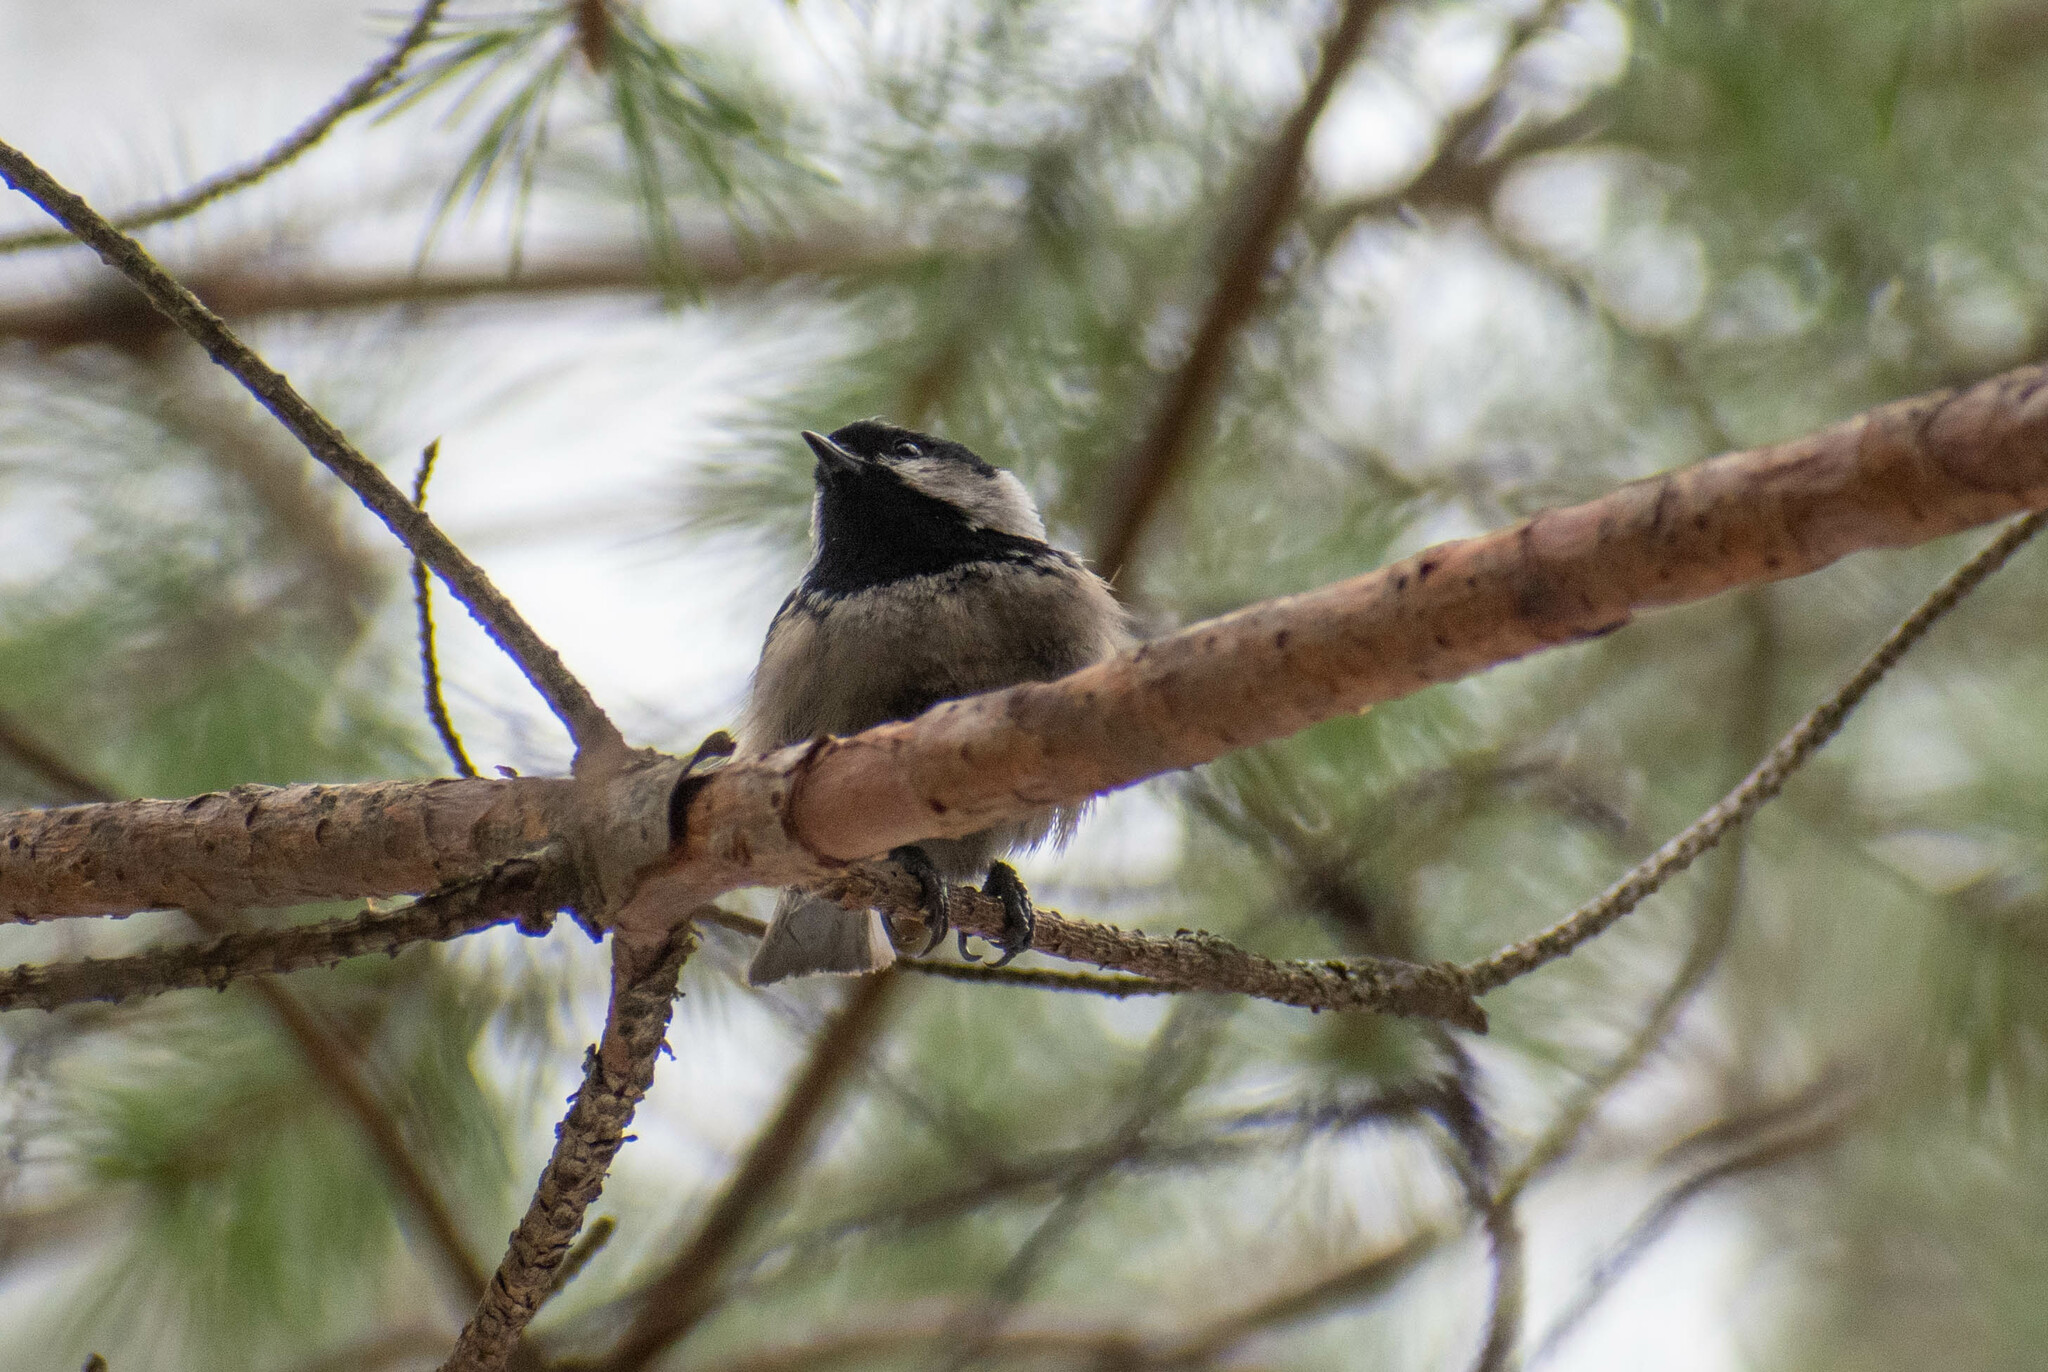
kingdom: Animalia
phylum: Chordata
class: Aves
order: Passeriformes
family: Paridae
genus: Periparus
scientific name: Periparus ater
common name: Coal tit
